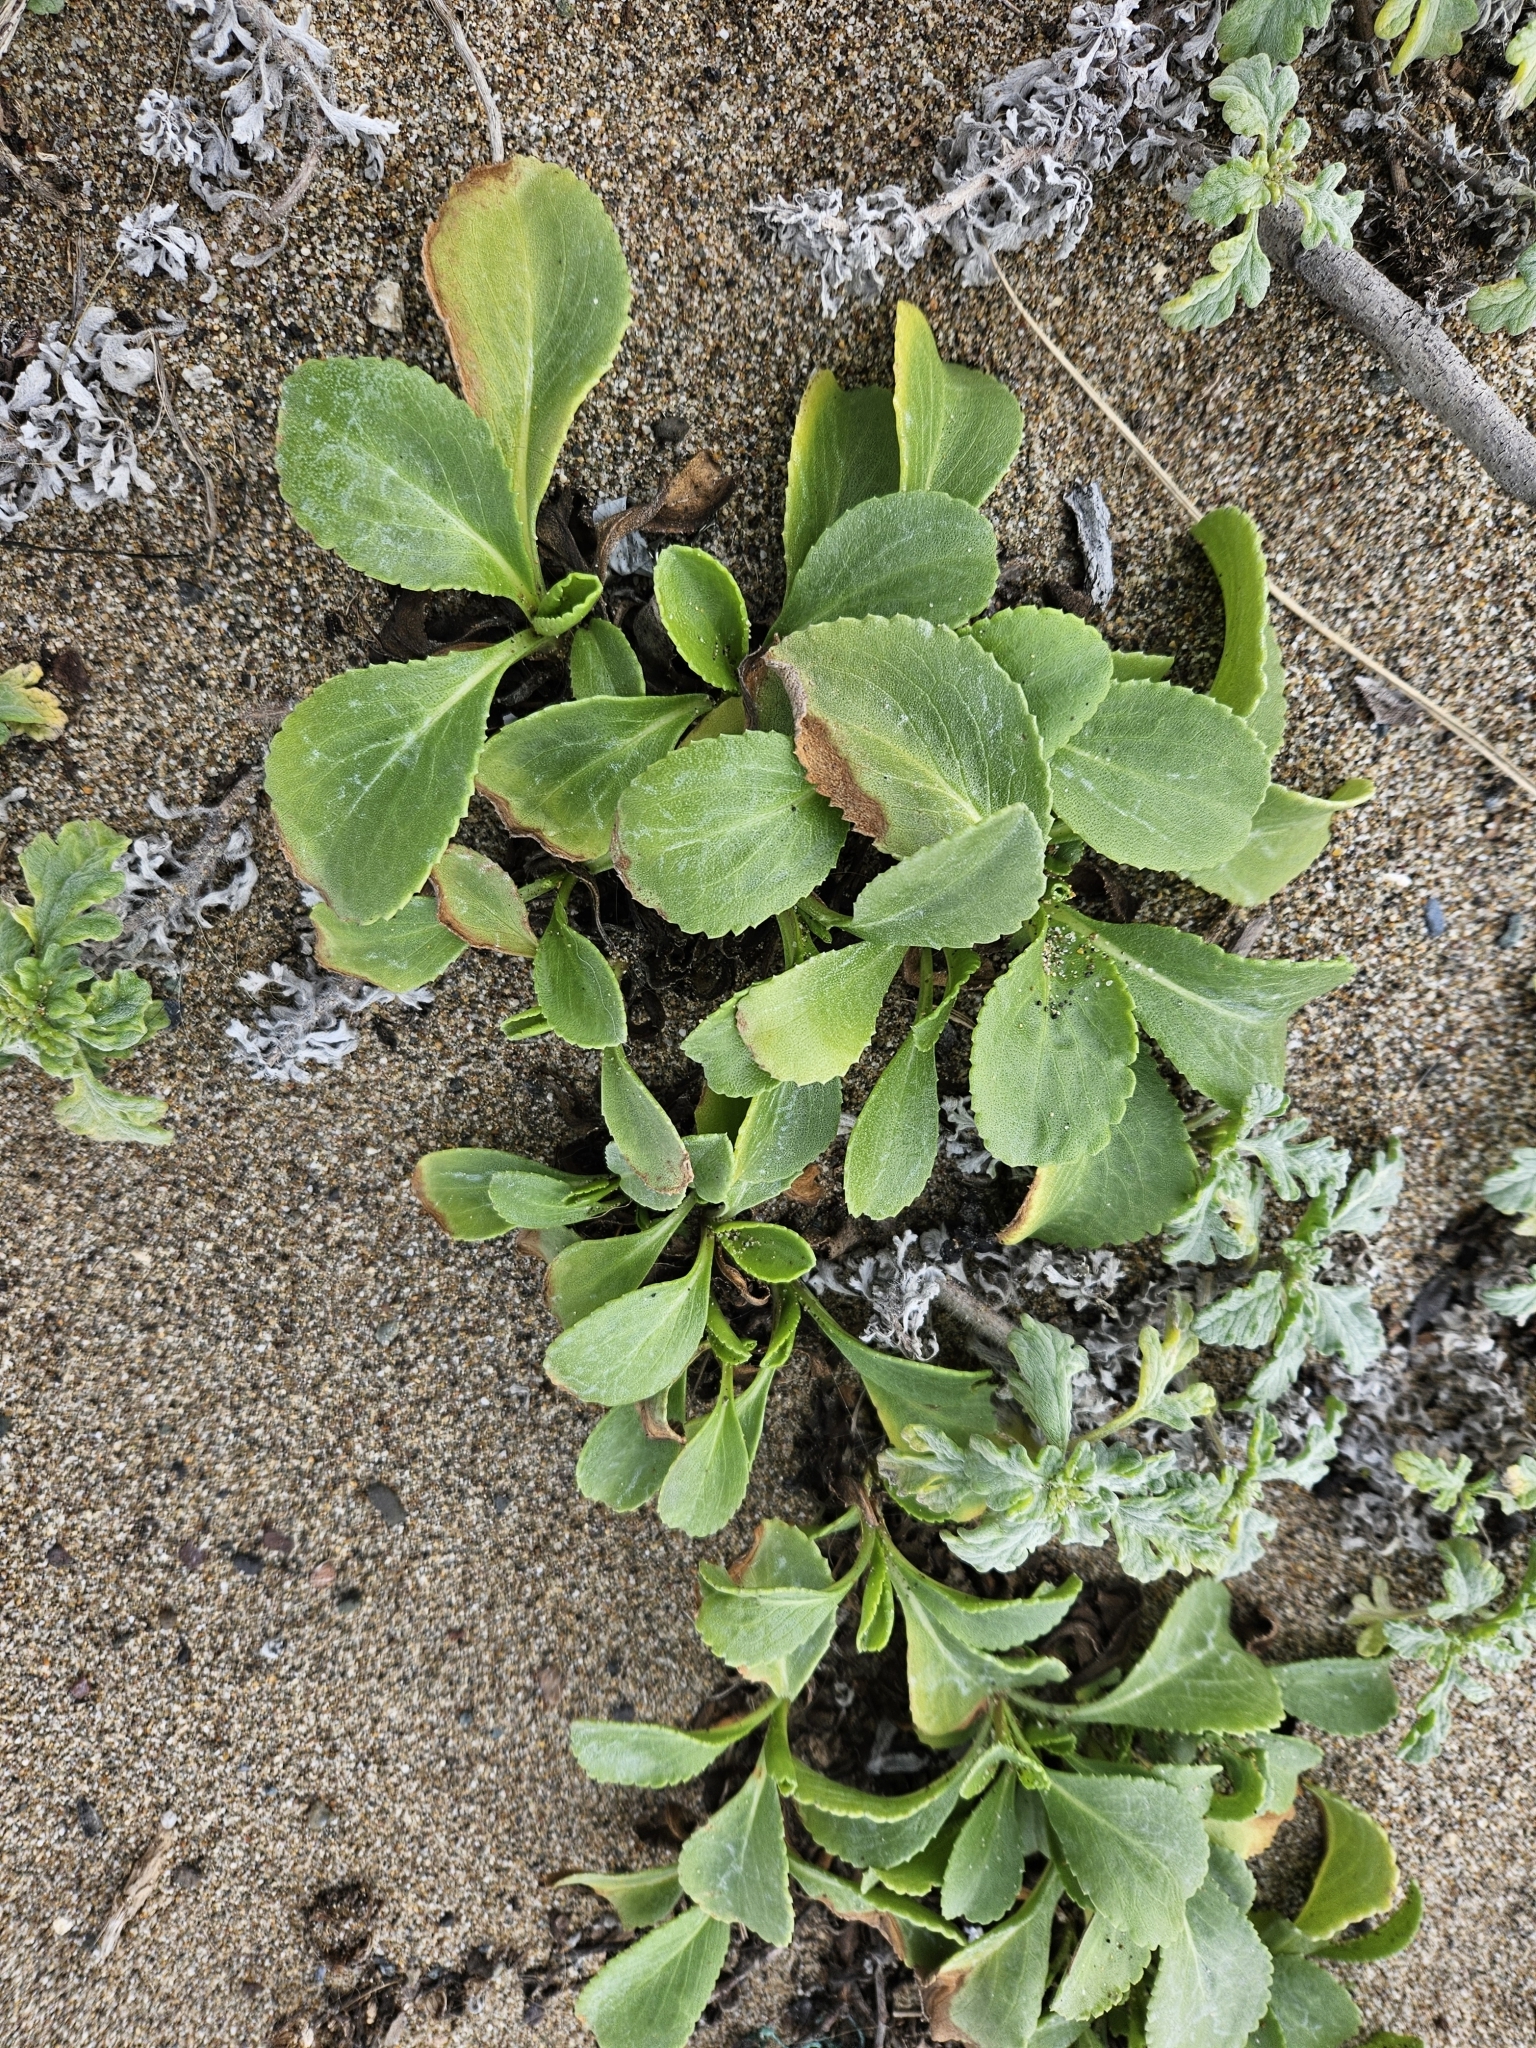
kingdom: Plantae
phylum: Tracheophyta
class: Magnoliopsida
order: Asterales
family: Asteraceae
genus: Grindelia
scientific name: Grindelia hirsutula
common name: Hairy gumweed
